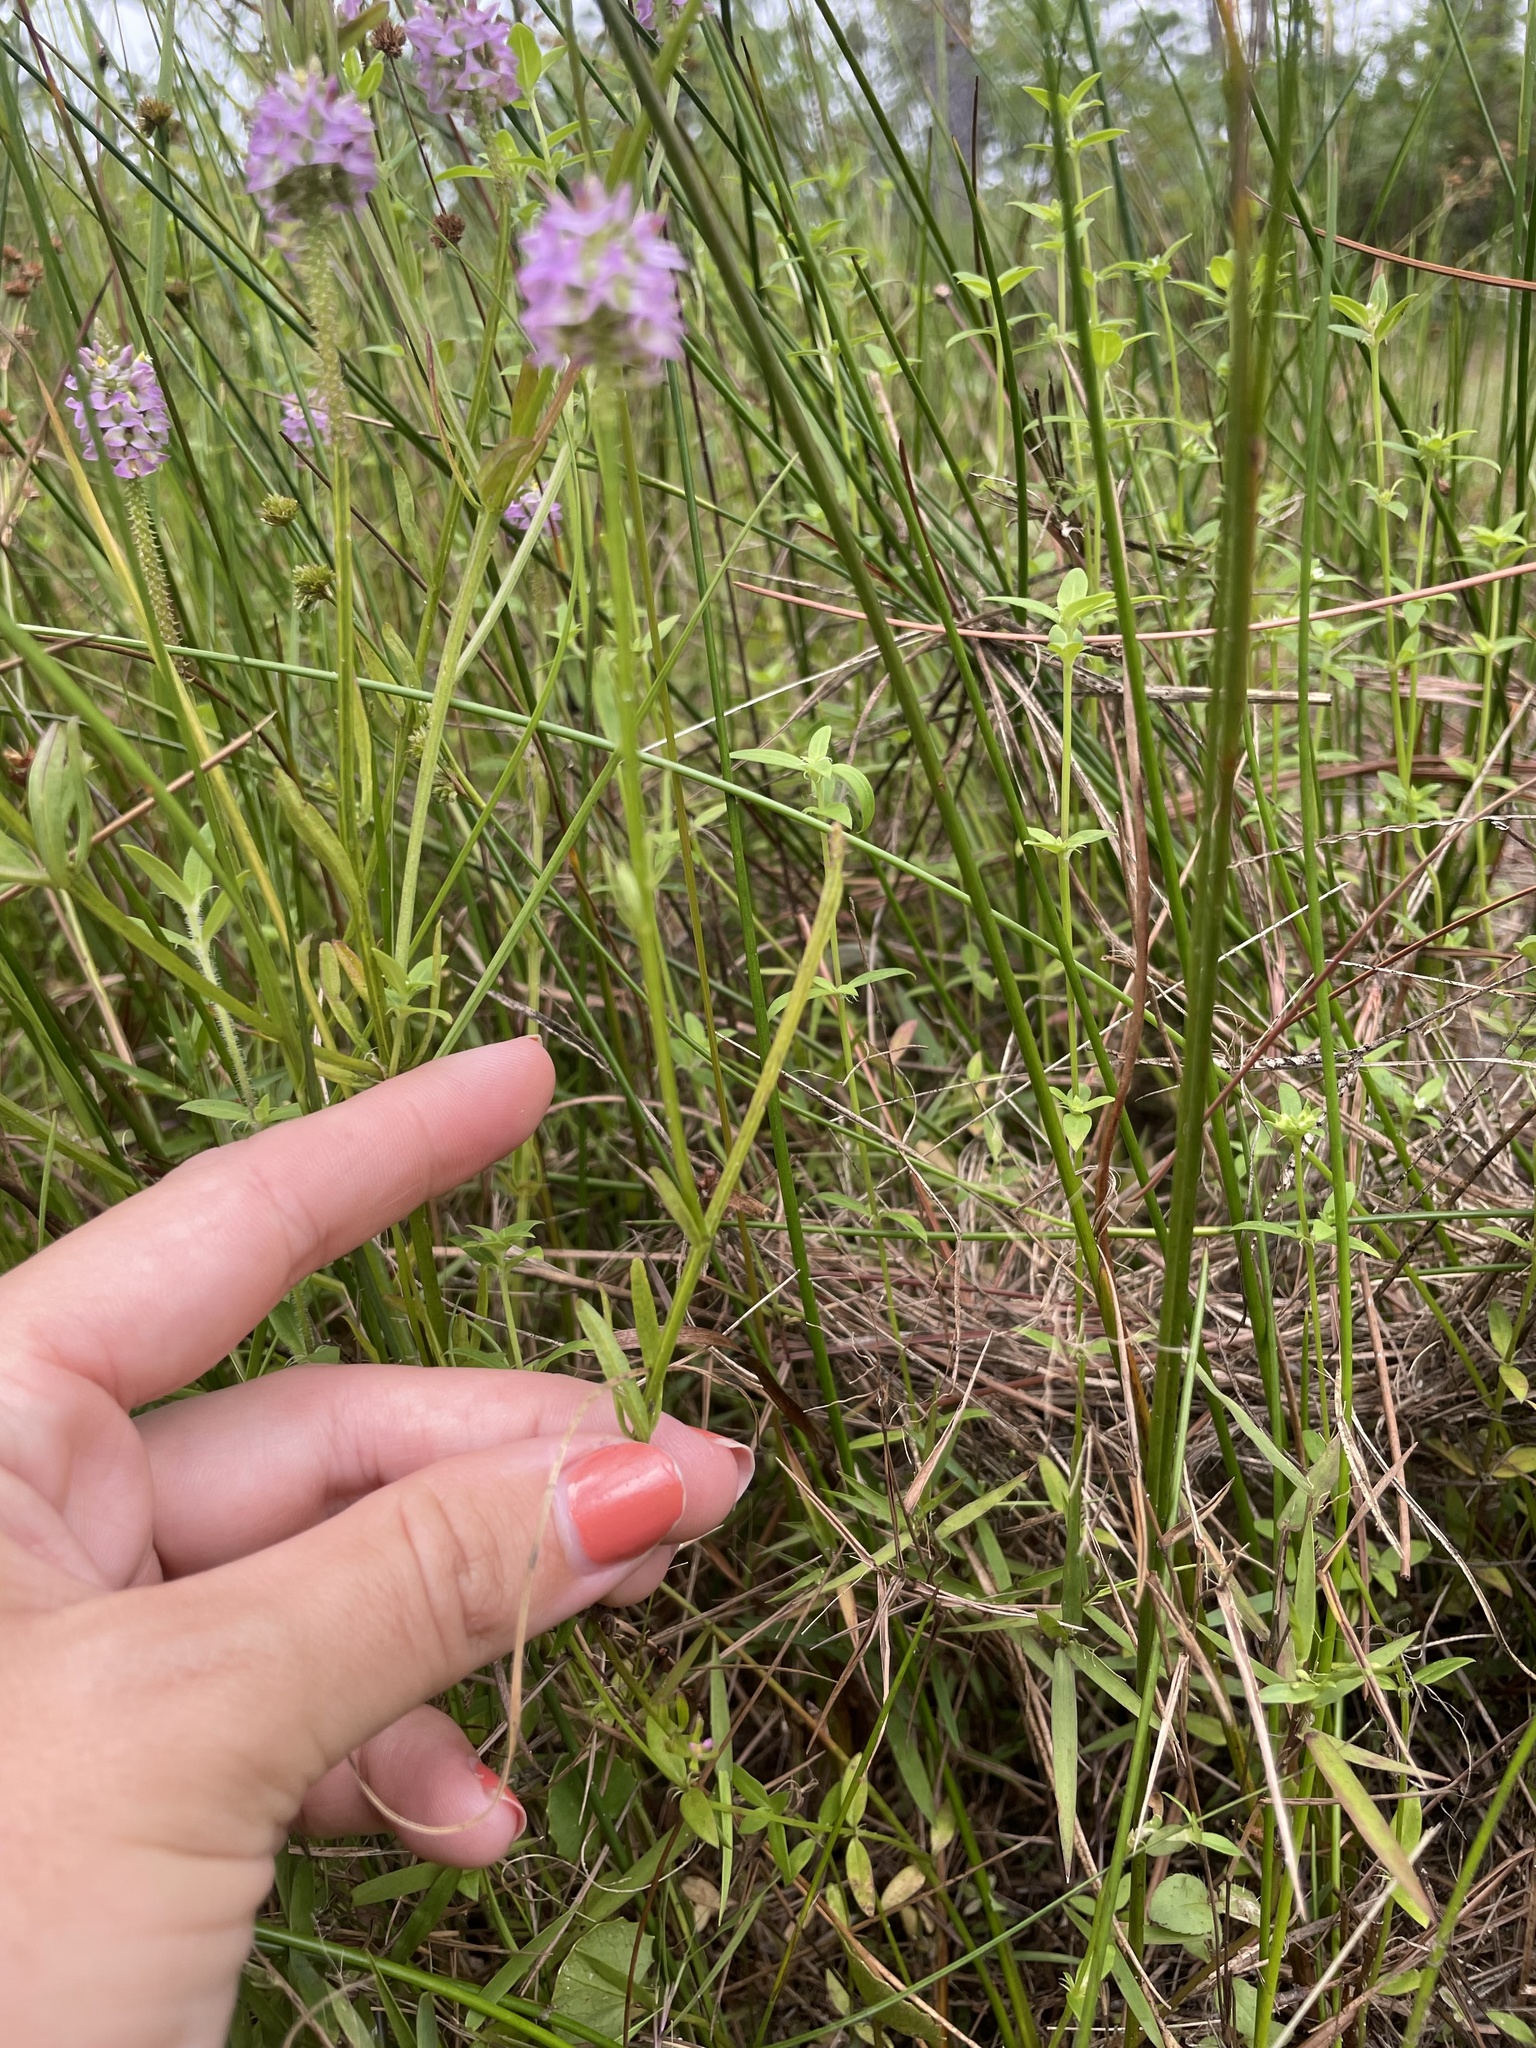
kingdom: Plantae
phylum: Tracheophyta
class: Magnoliopsida
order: Fabales
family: Polygalaceae
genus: Polygala
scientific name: Polygala cruciata
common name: Drumheads
